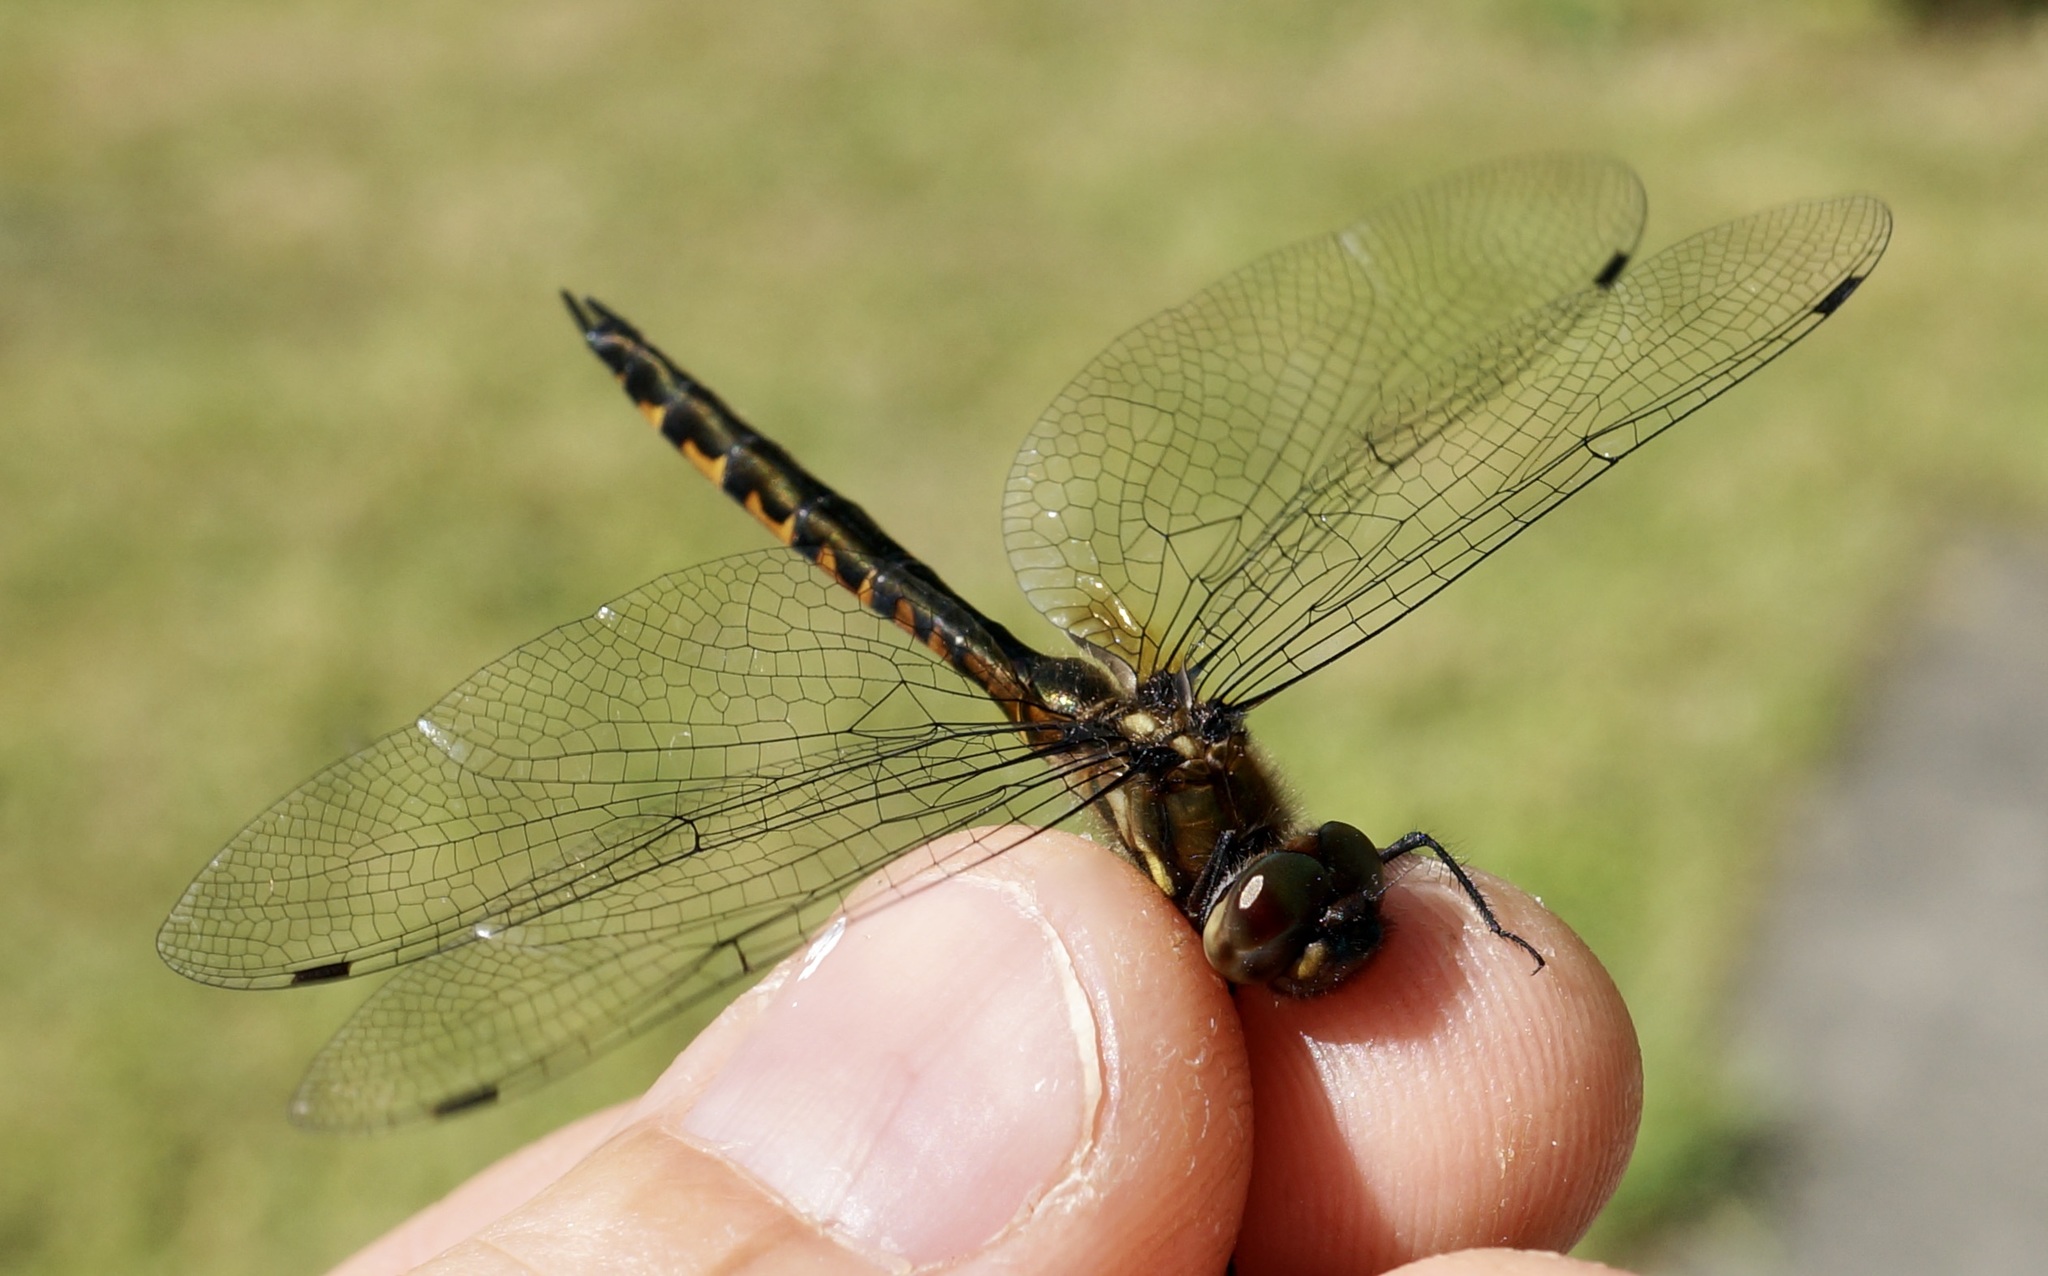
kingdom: Animalia
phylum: Arthropoda
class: Insecta
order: Odonata
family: Corduliidae
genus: Hemicordulia
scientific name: Hemicordulia armstrongi
